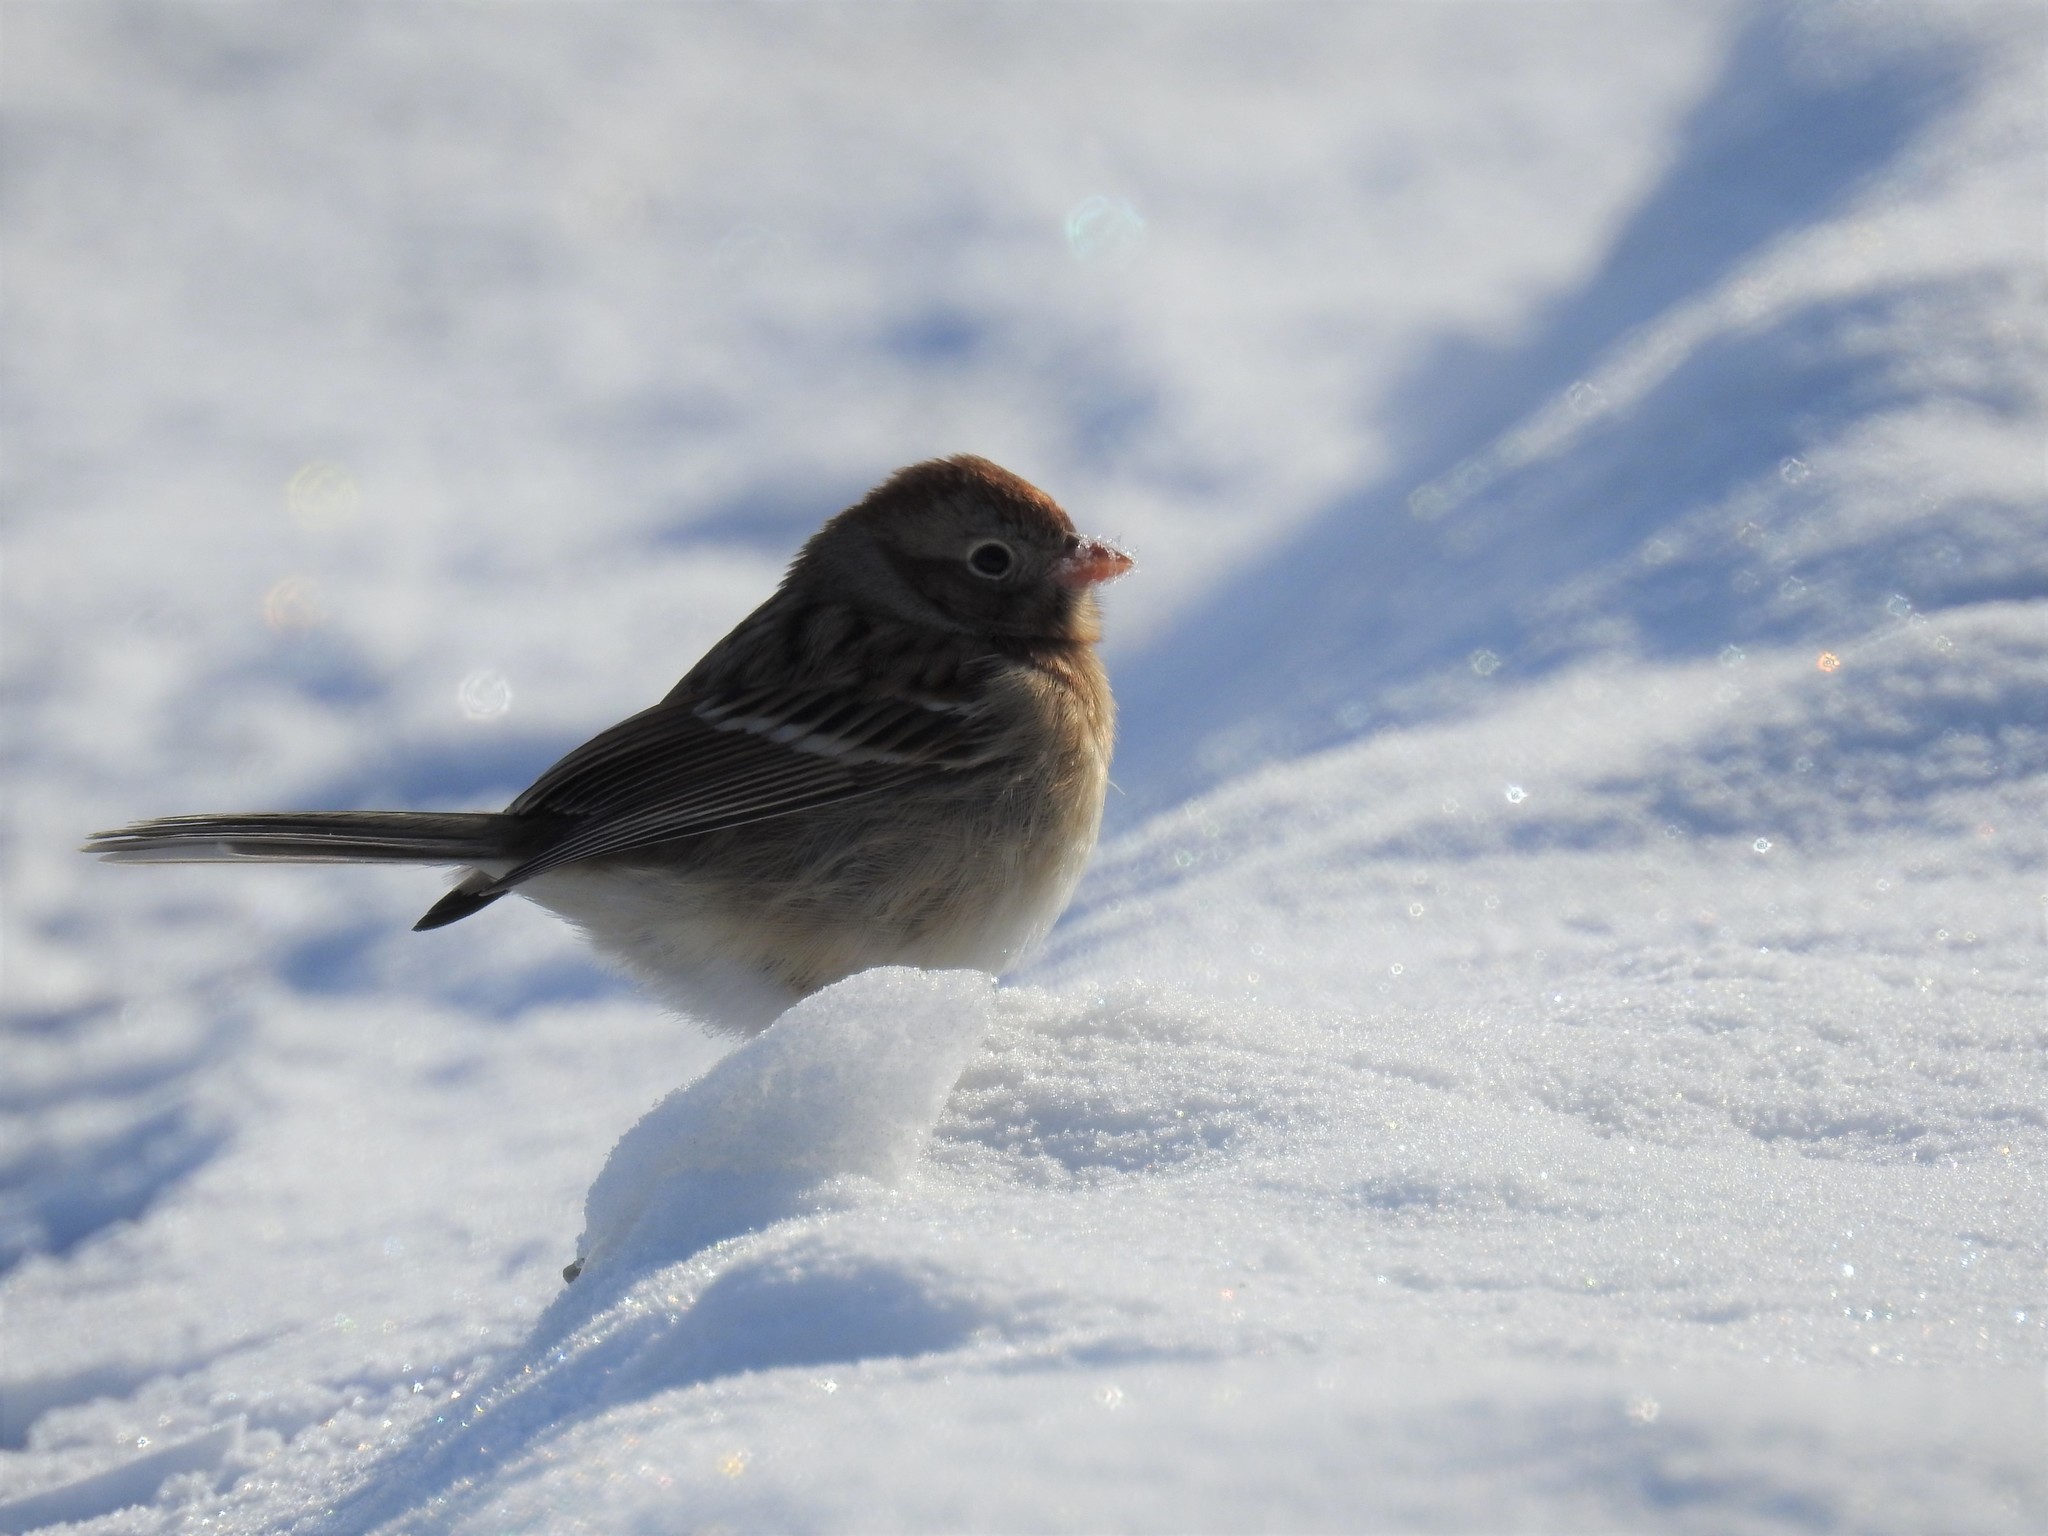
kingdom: Animalia
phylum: Chordata
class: Aves
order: Passeriformes
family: Passerellidae
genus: Spizella
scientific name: Spizella pusilla
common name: Field sparrow
